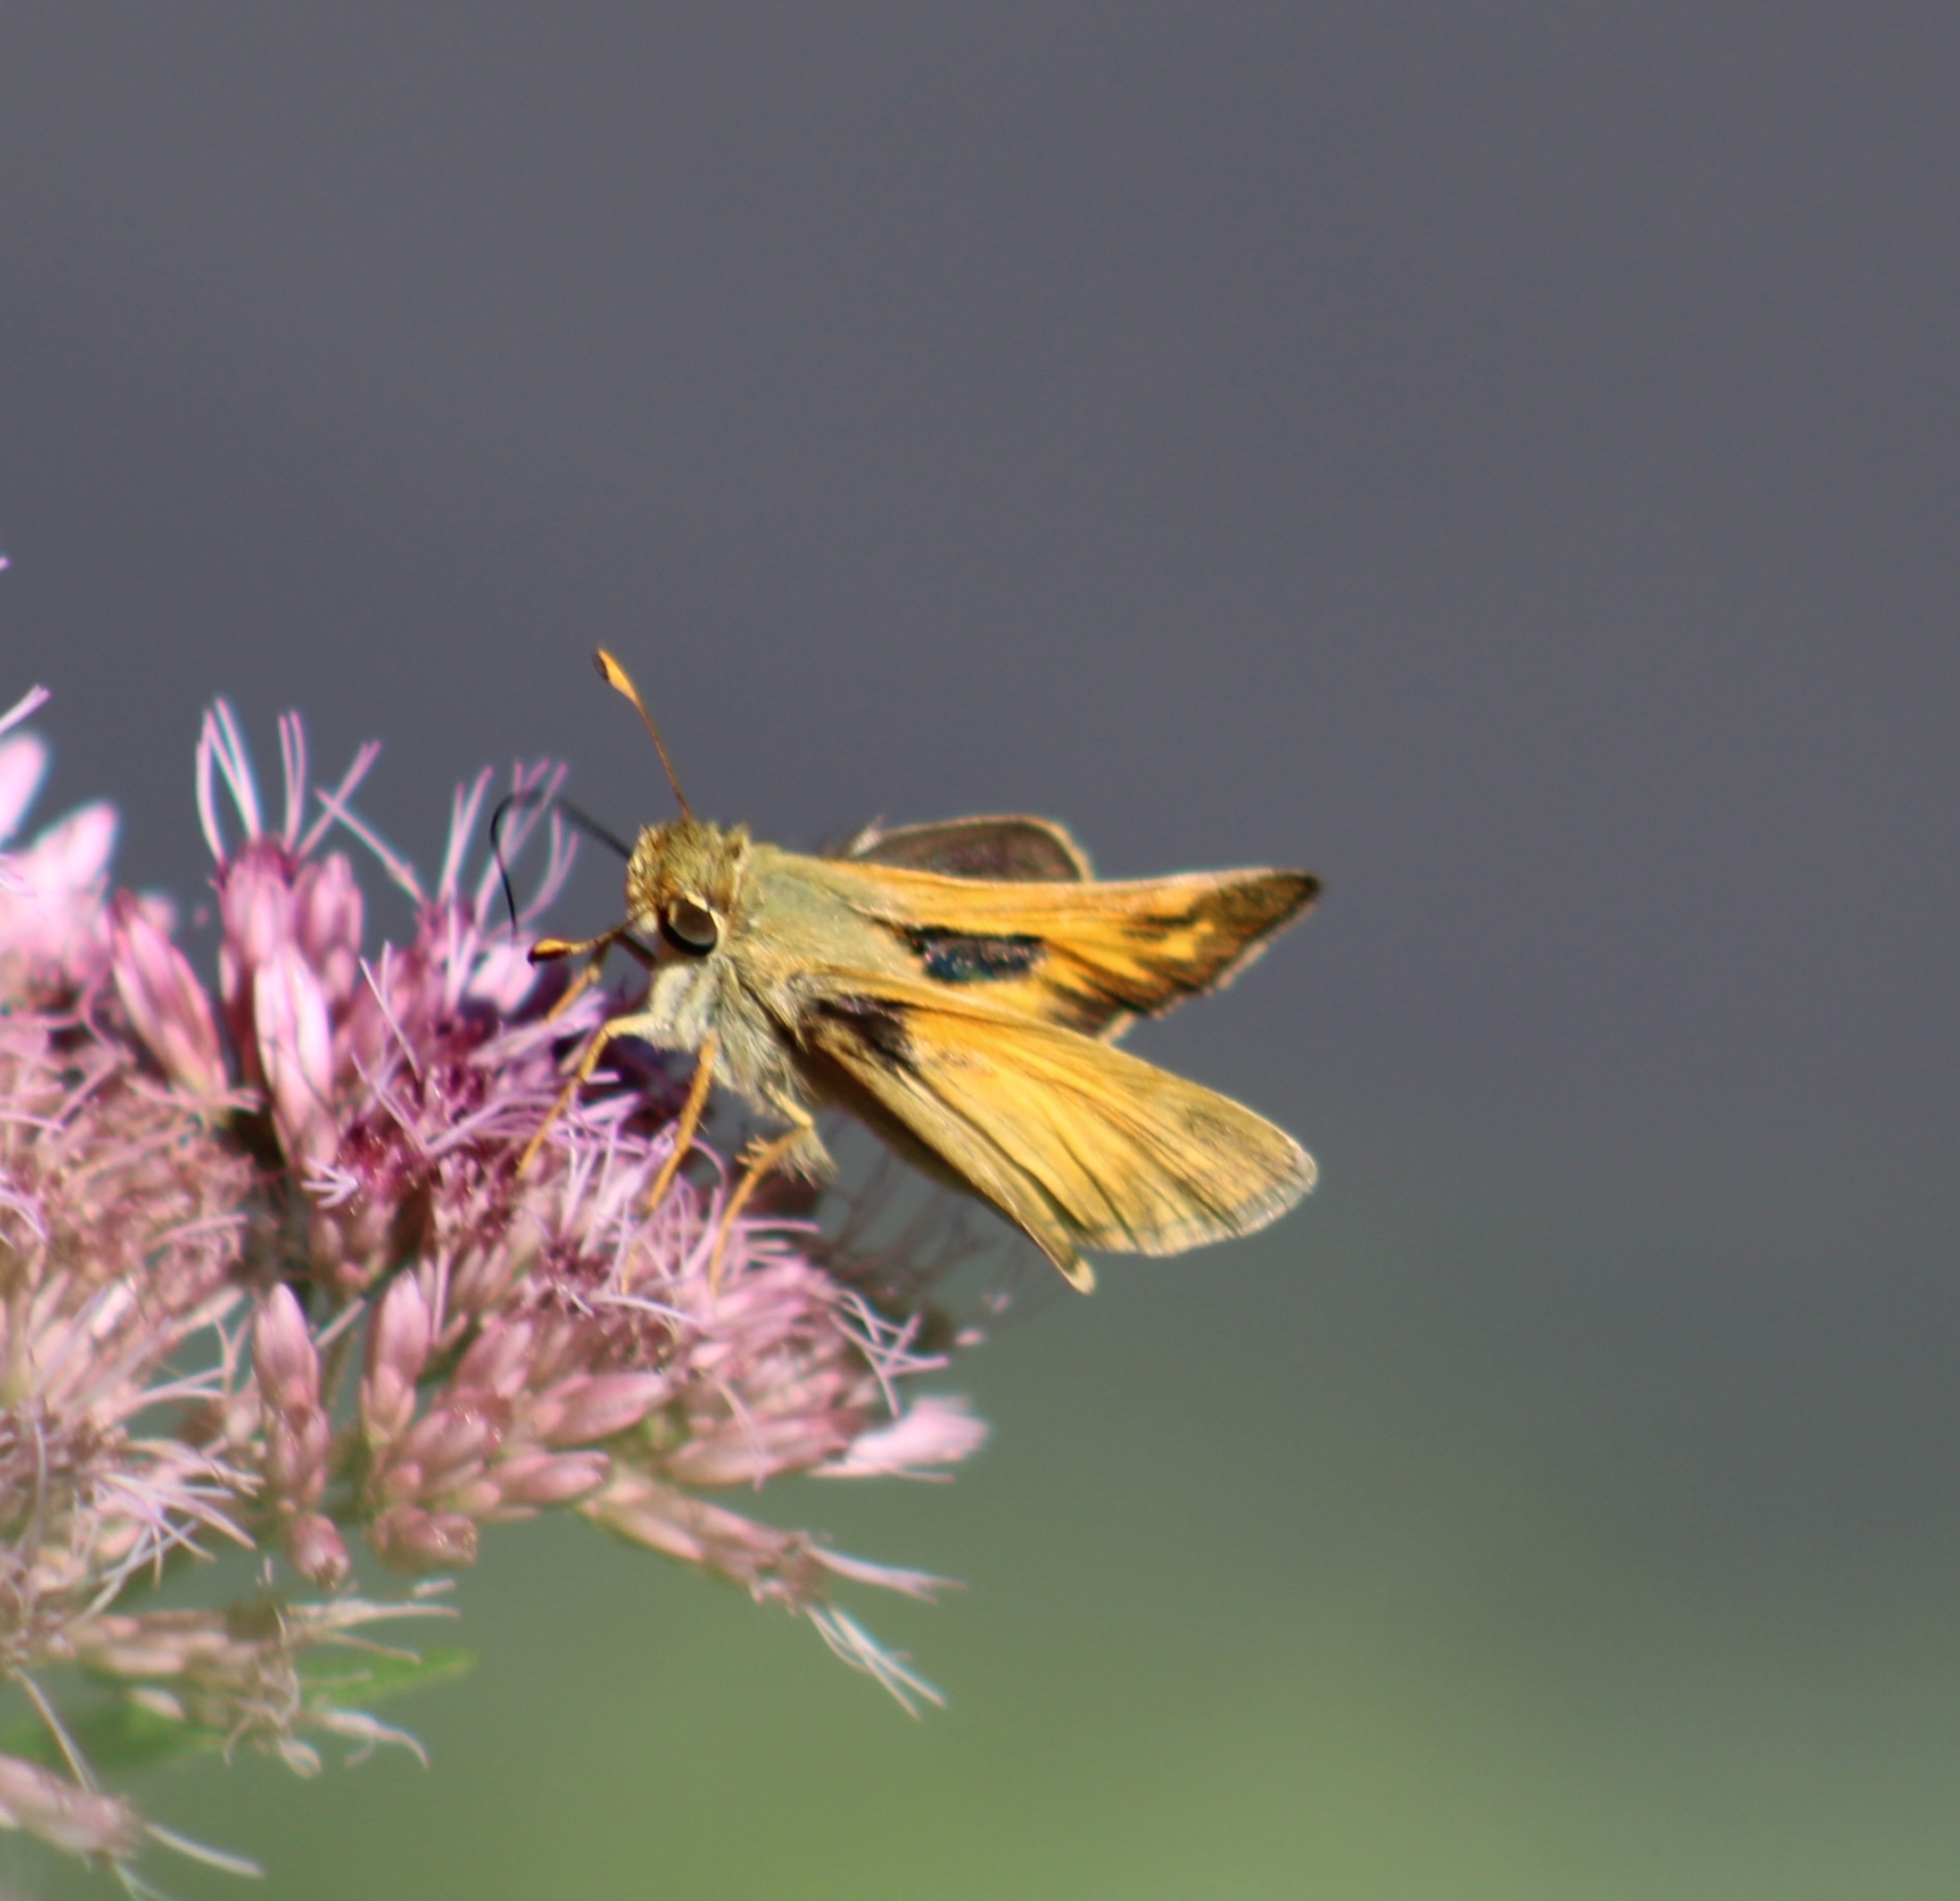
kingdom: Animalia
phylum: Arthropoda
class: Insecta
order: Lepidoptera
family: Hesperiidae
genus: Atalopedes
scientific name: Atalopedes
